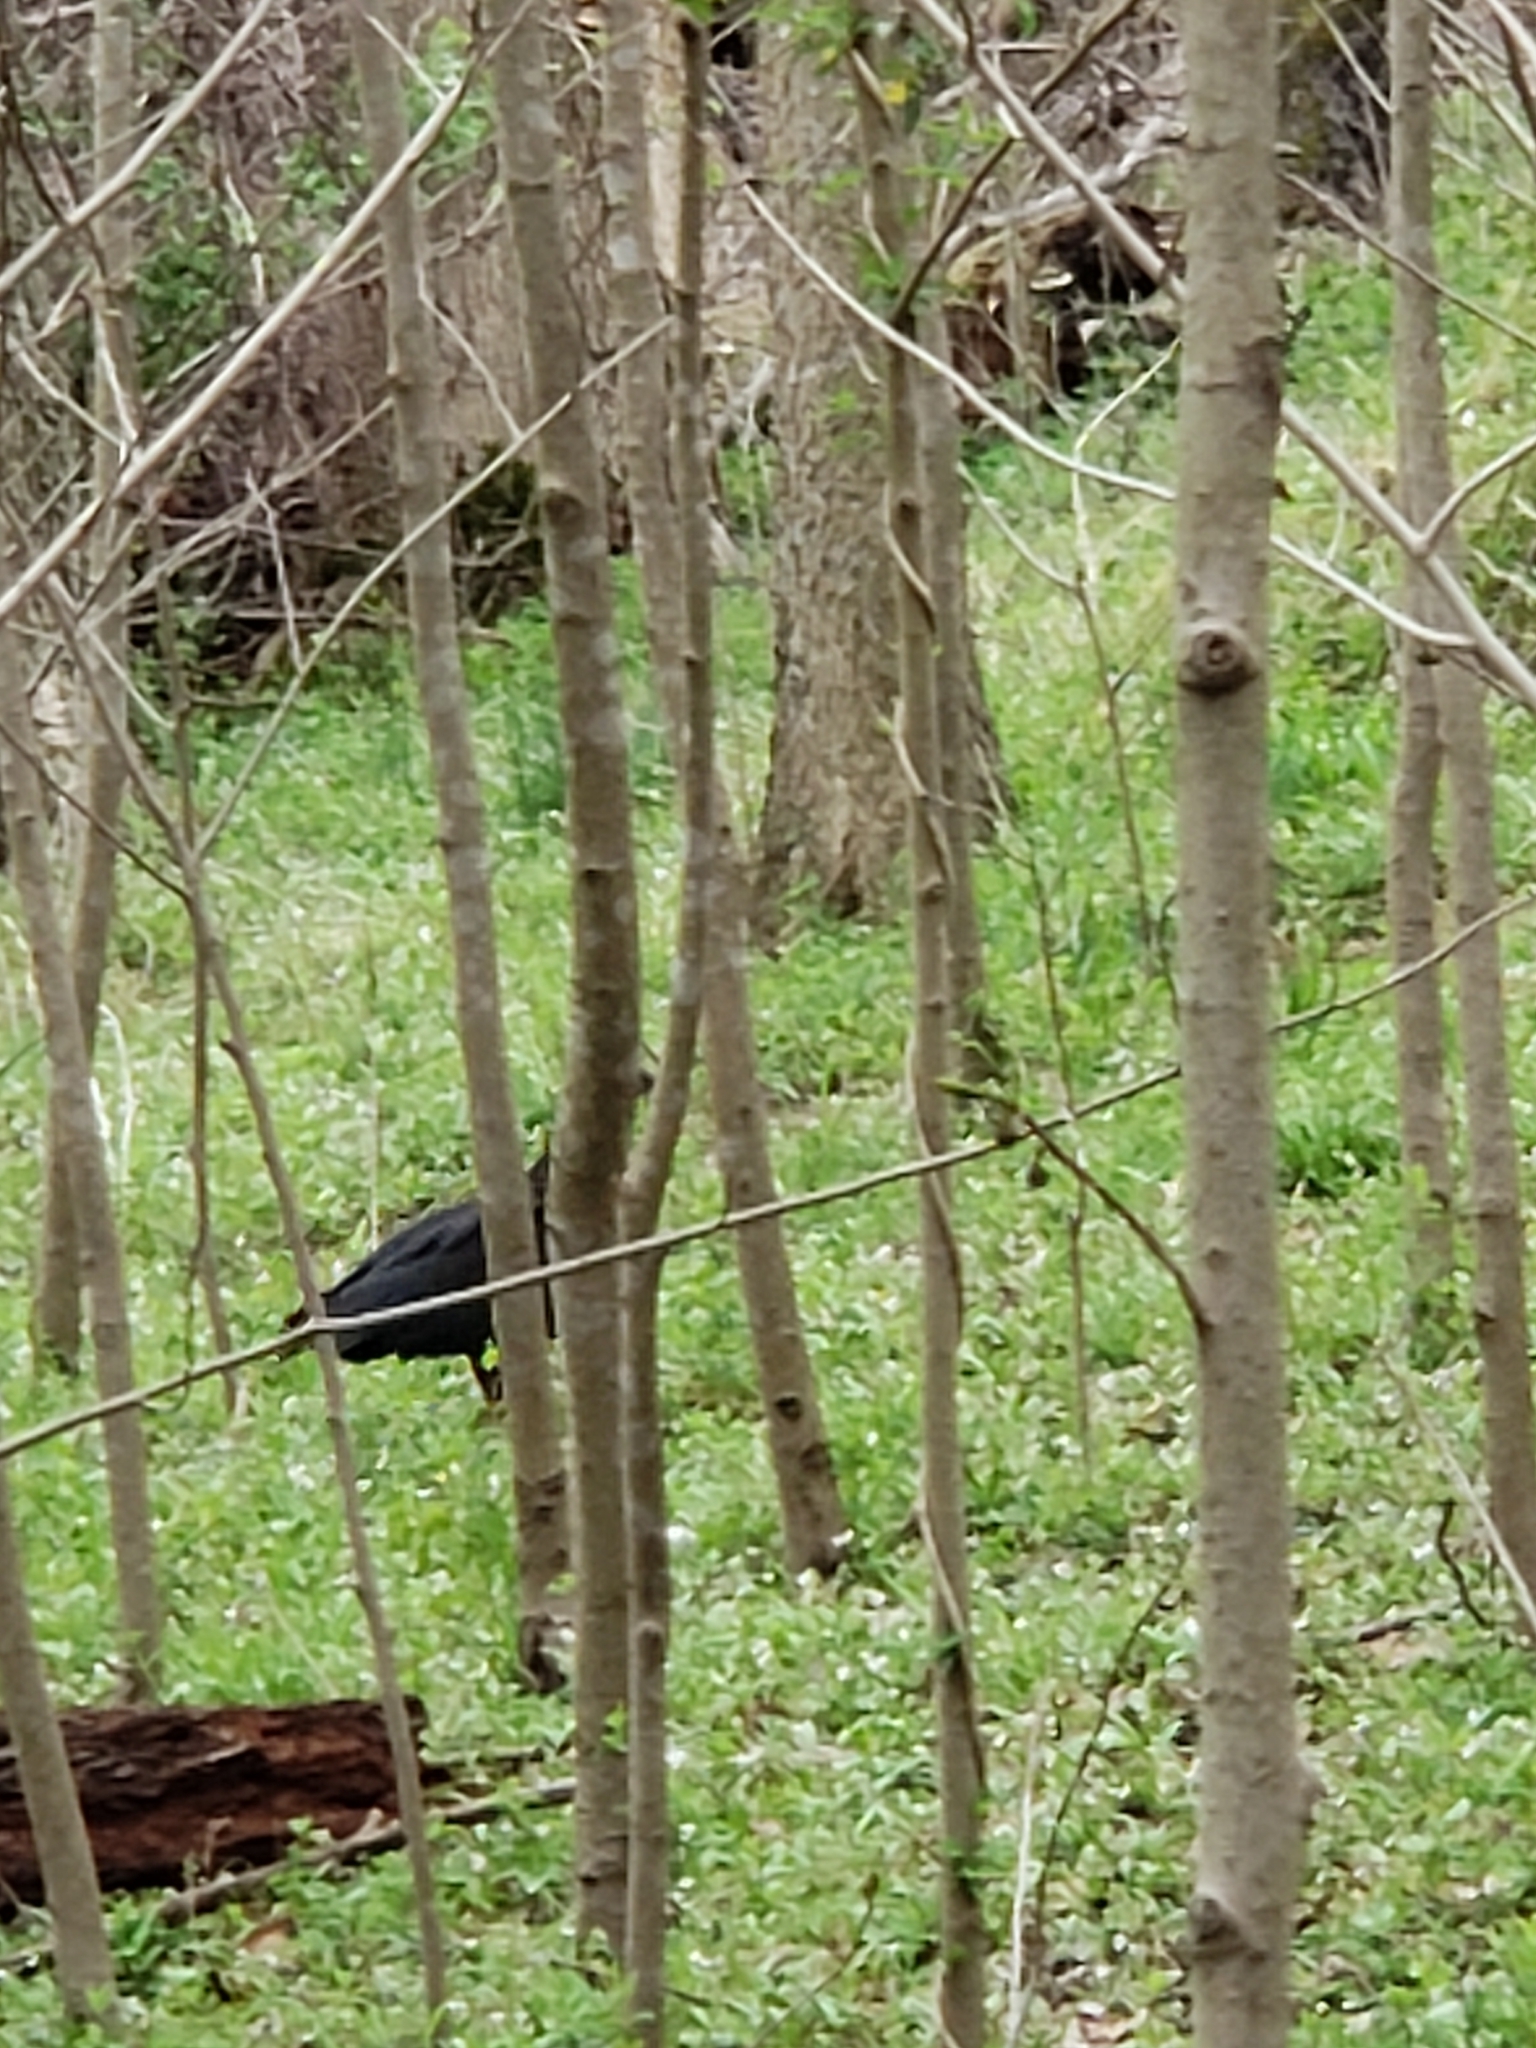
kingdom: Animalia
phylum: Chordata
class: Aves
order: Accipitriformes
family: Cathartidae
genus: Coragyps
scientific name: Coragyps atratus
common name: Black vulture
